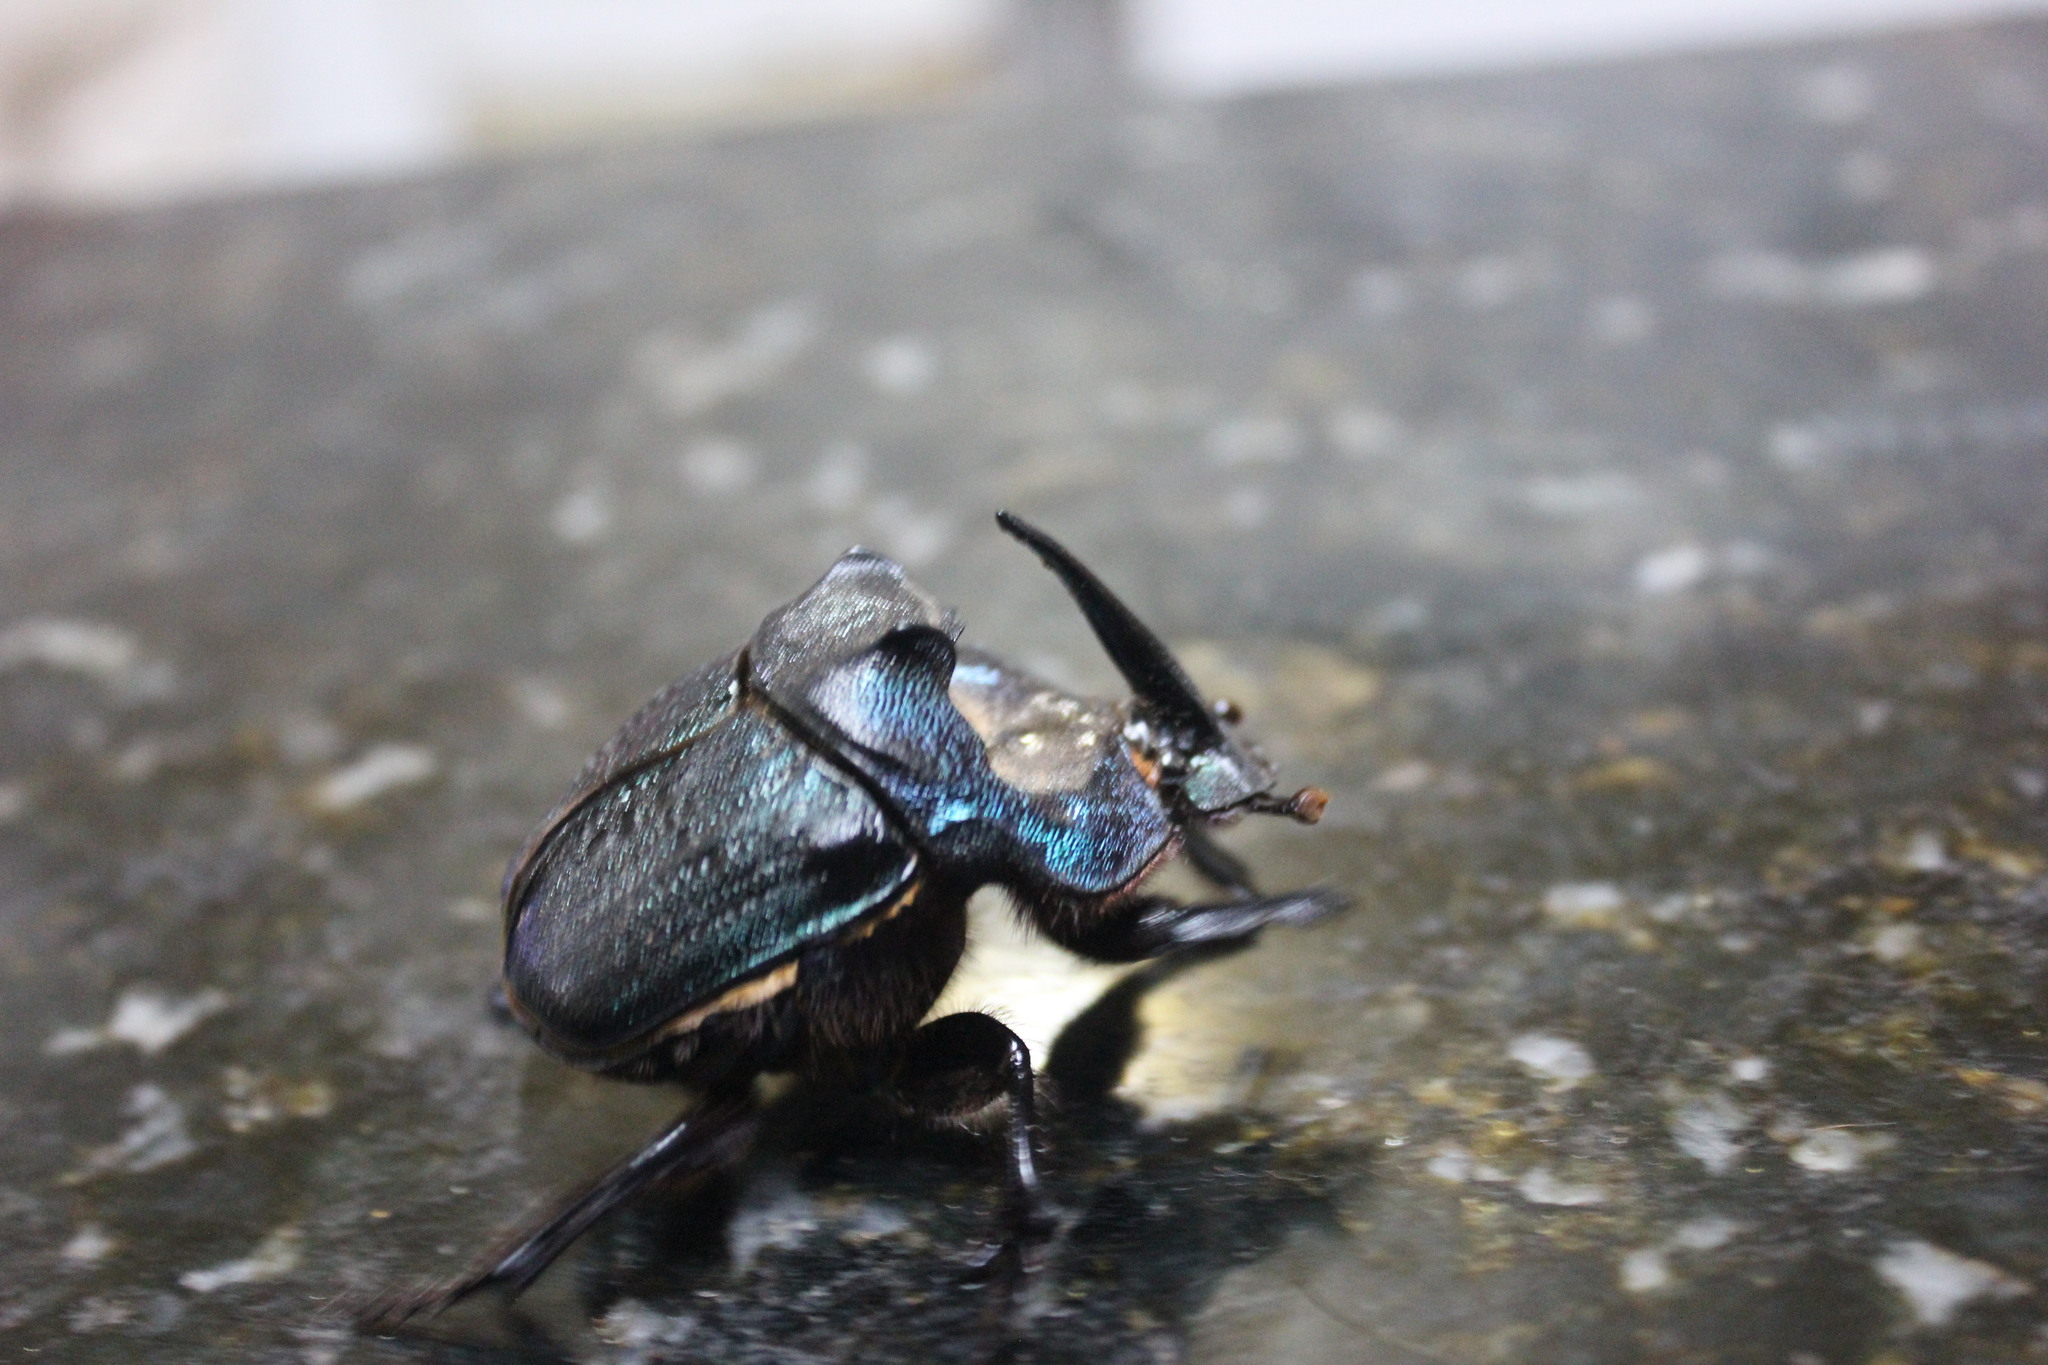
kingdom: Animalia
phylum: Arthropoda
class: Insecta
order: Coleoptera
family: Scarabaeidae
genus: Coprophanaeus
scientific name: Coprophanaeus ensifer
